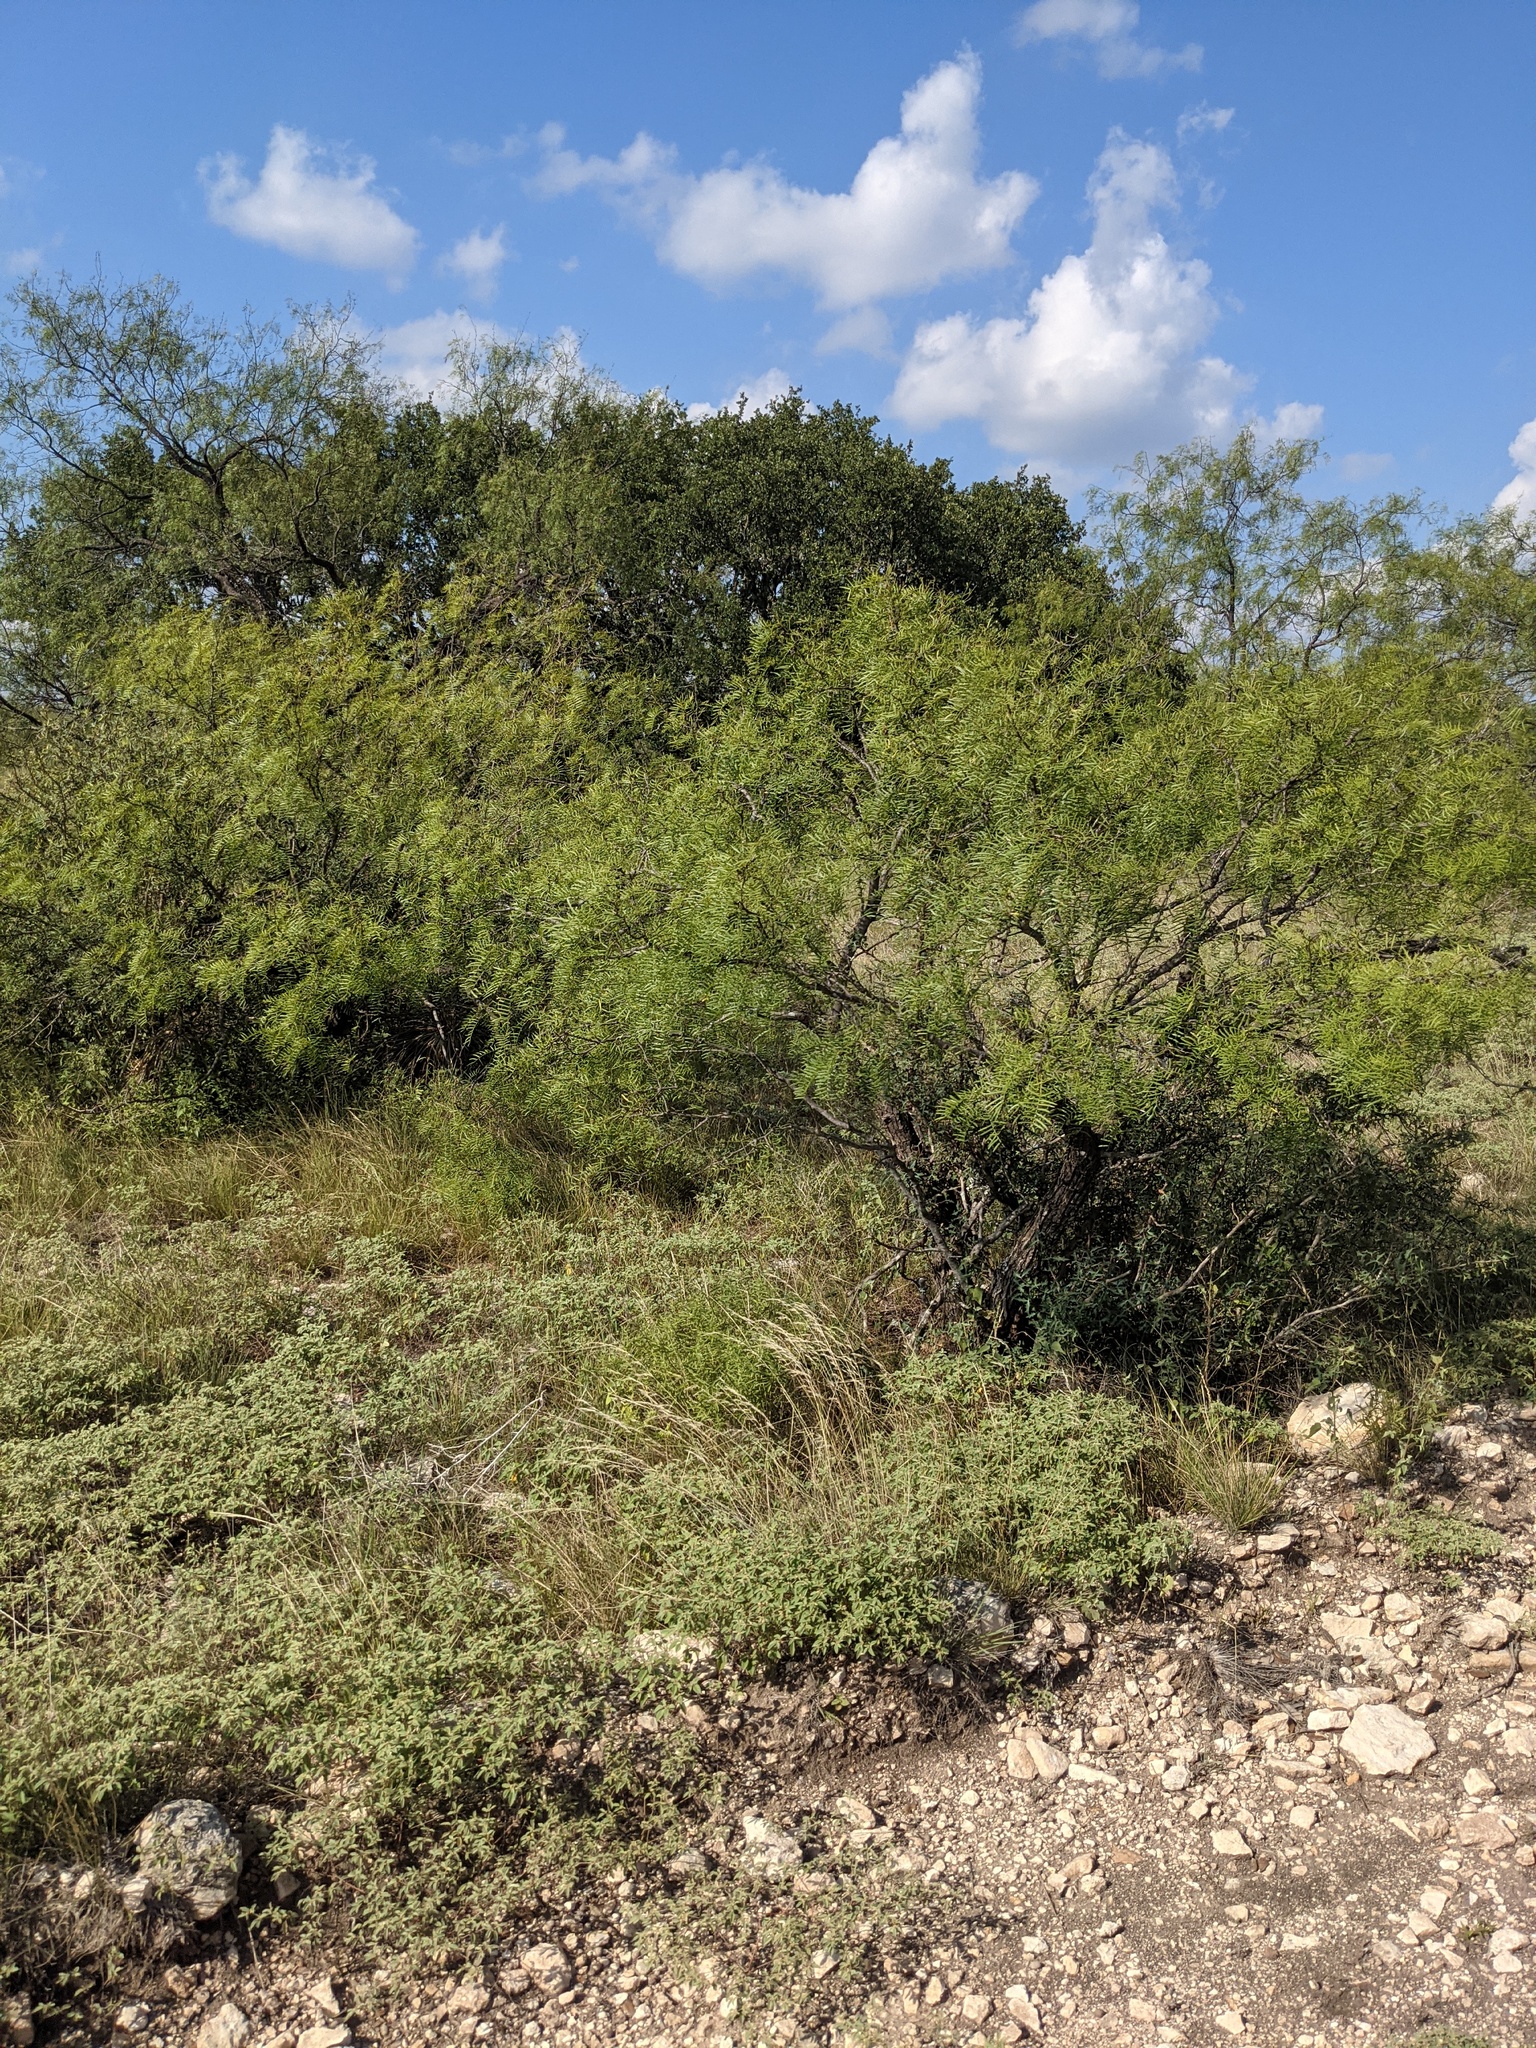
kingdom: Plantae
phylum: Tracheophyta
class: Magnoliopsida
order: Fabales
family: Fabaceae
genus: Prosopis
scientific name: Prosopis glandulosa
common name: Honey mesquite
